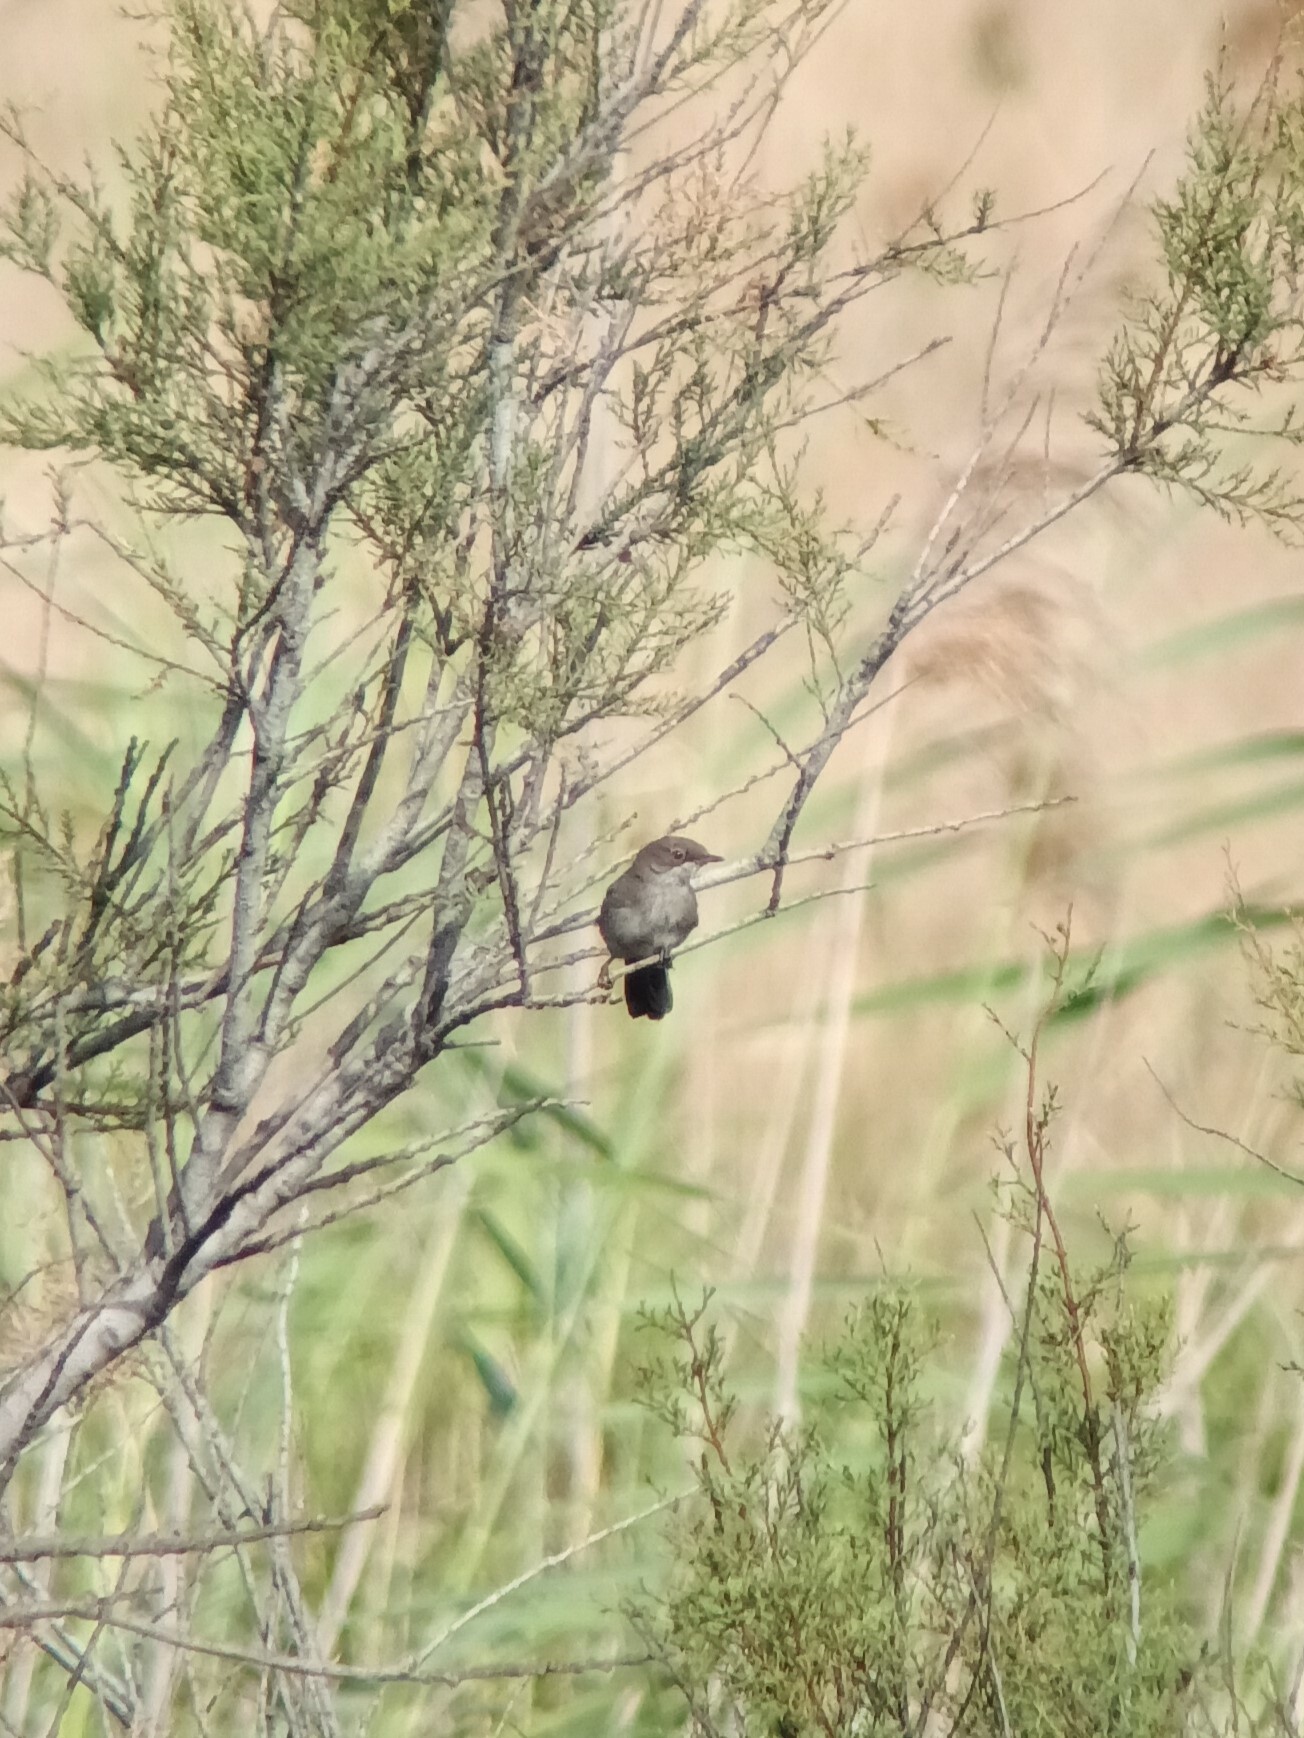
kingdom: Animalia
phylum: Chordata
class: Aves
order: Passeriformes
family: Sylviidae
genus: Curruca
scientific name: Curruca melanocephala
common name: Sardinian warbler
